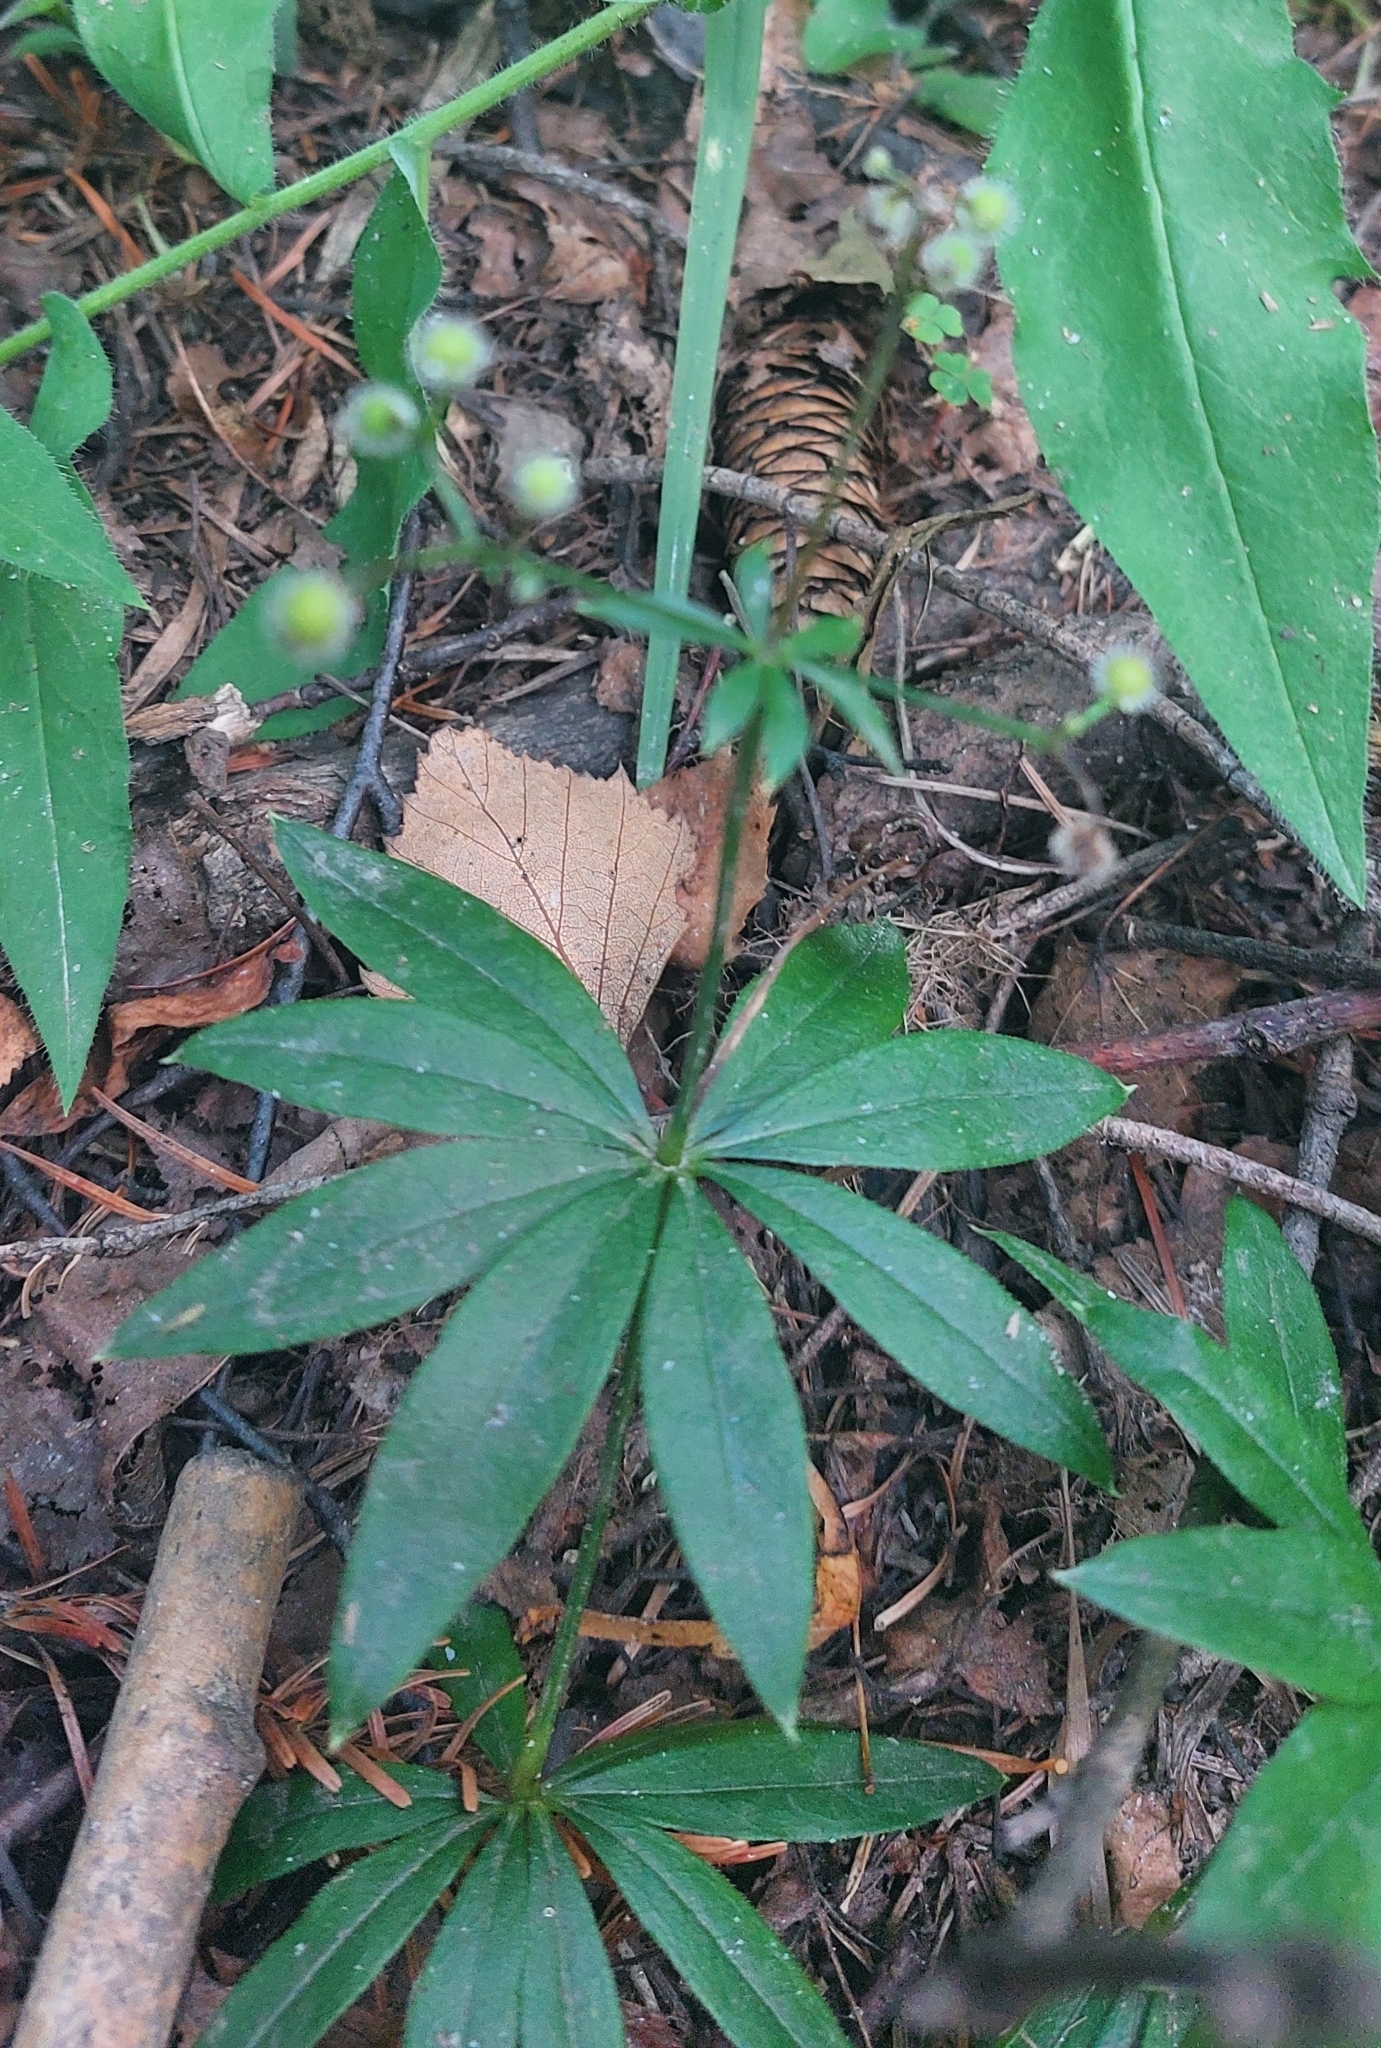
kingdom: Plantae
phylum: Tracheophyta
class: Magnoliopsida
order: Gentianales
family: Rubiaceae
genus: Galium
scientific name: Galium odoratum
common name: Sweet woodruff
